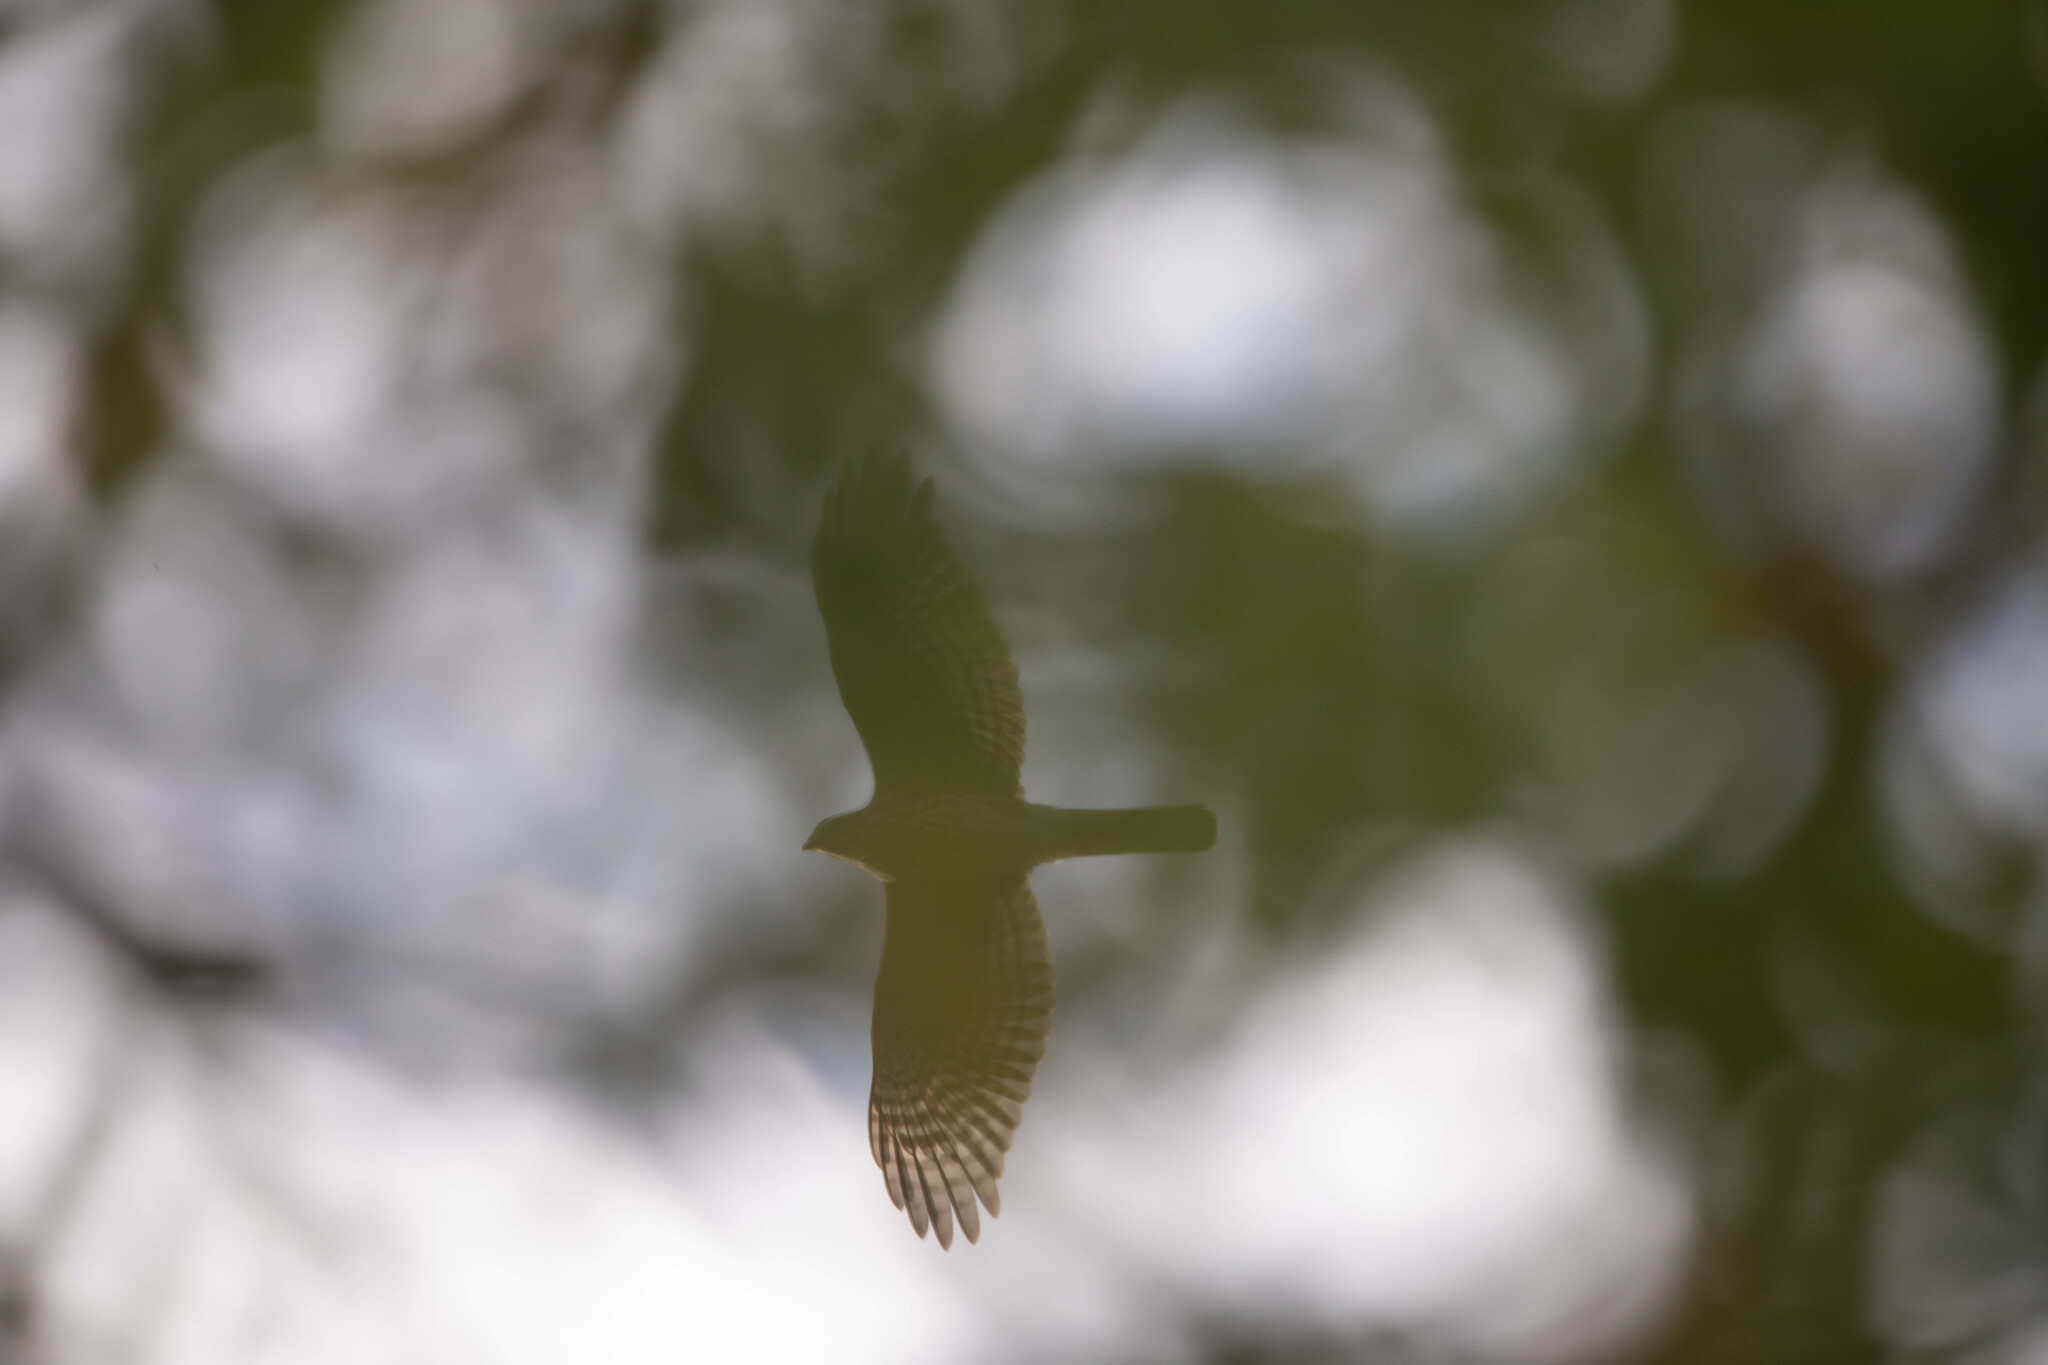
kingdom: Animalia
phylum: Chordata
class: Aves
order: Accipitriformes
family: Accipitridae
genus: Accipiter
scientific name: Accipiter cooperii
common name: Cooper's hawk
